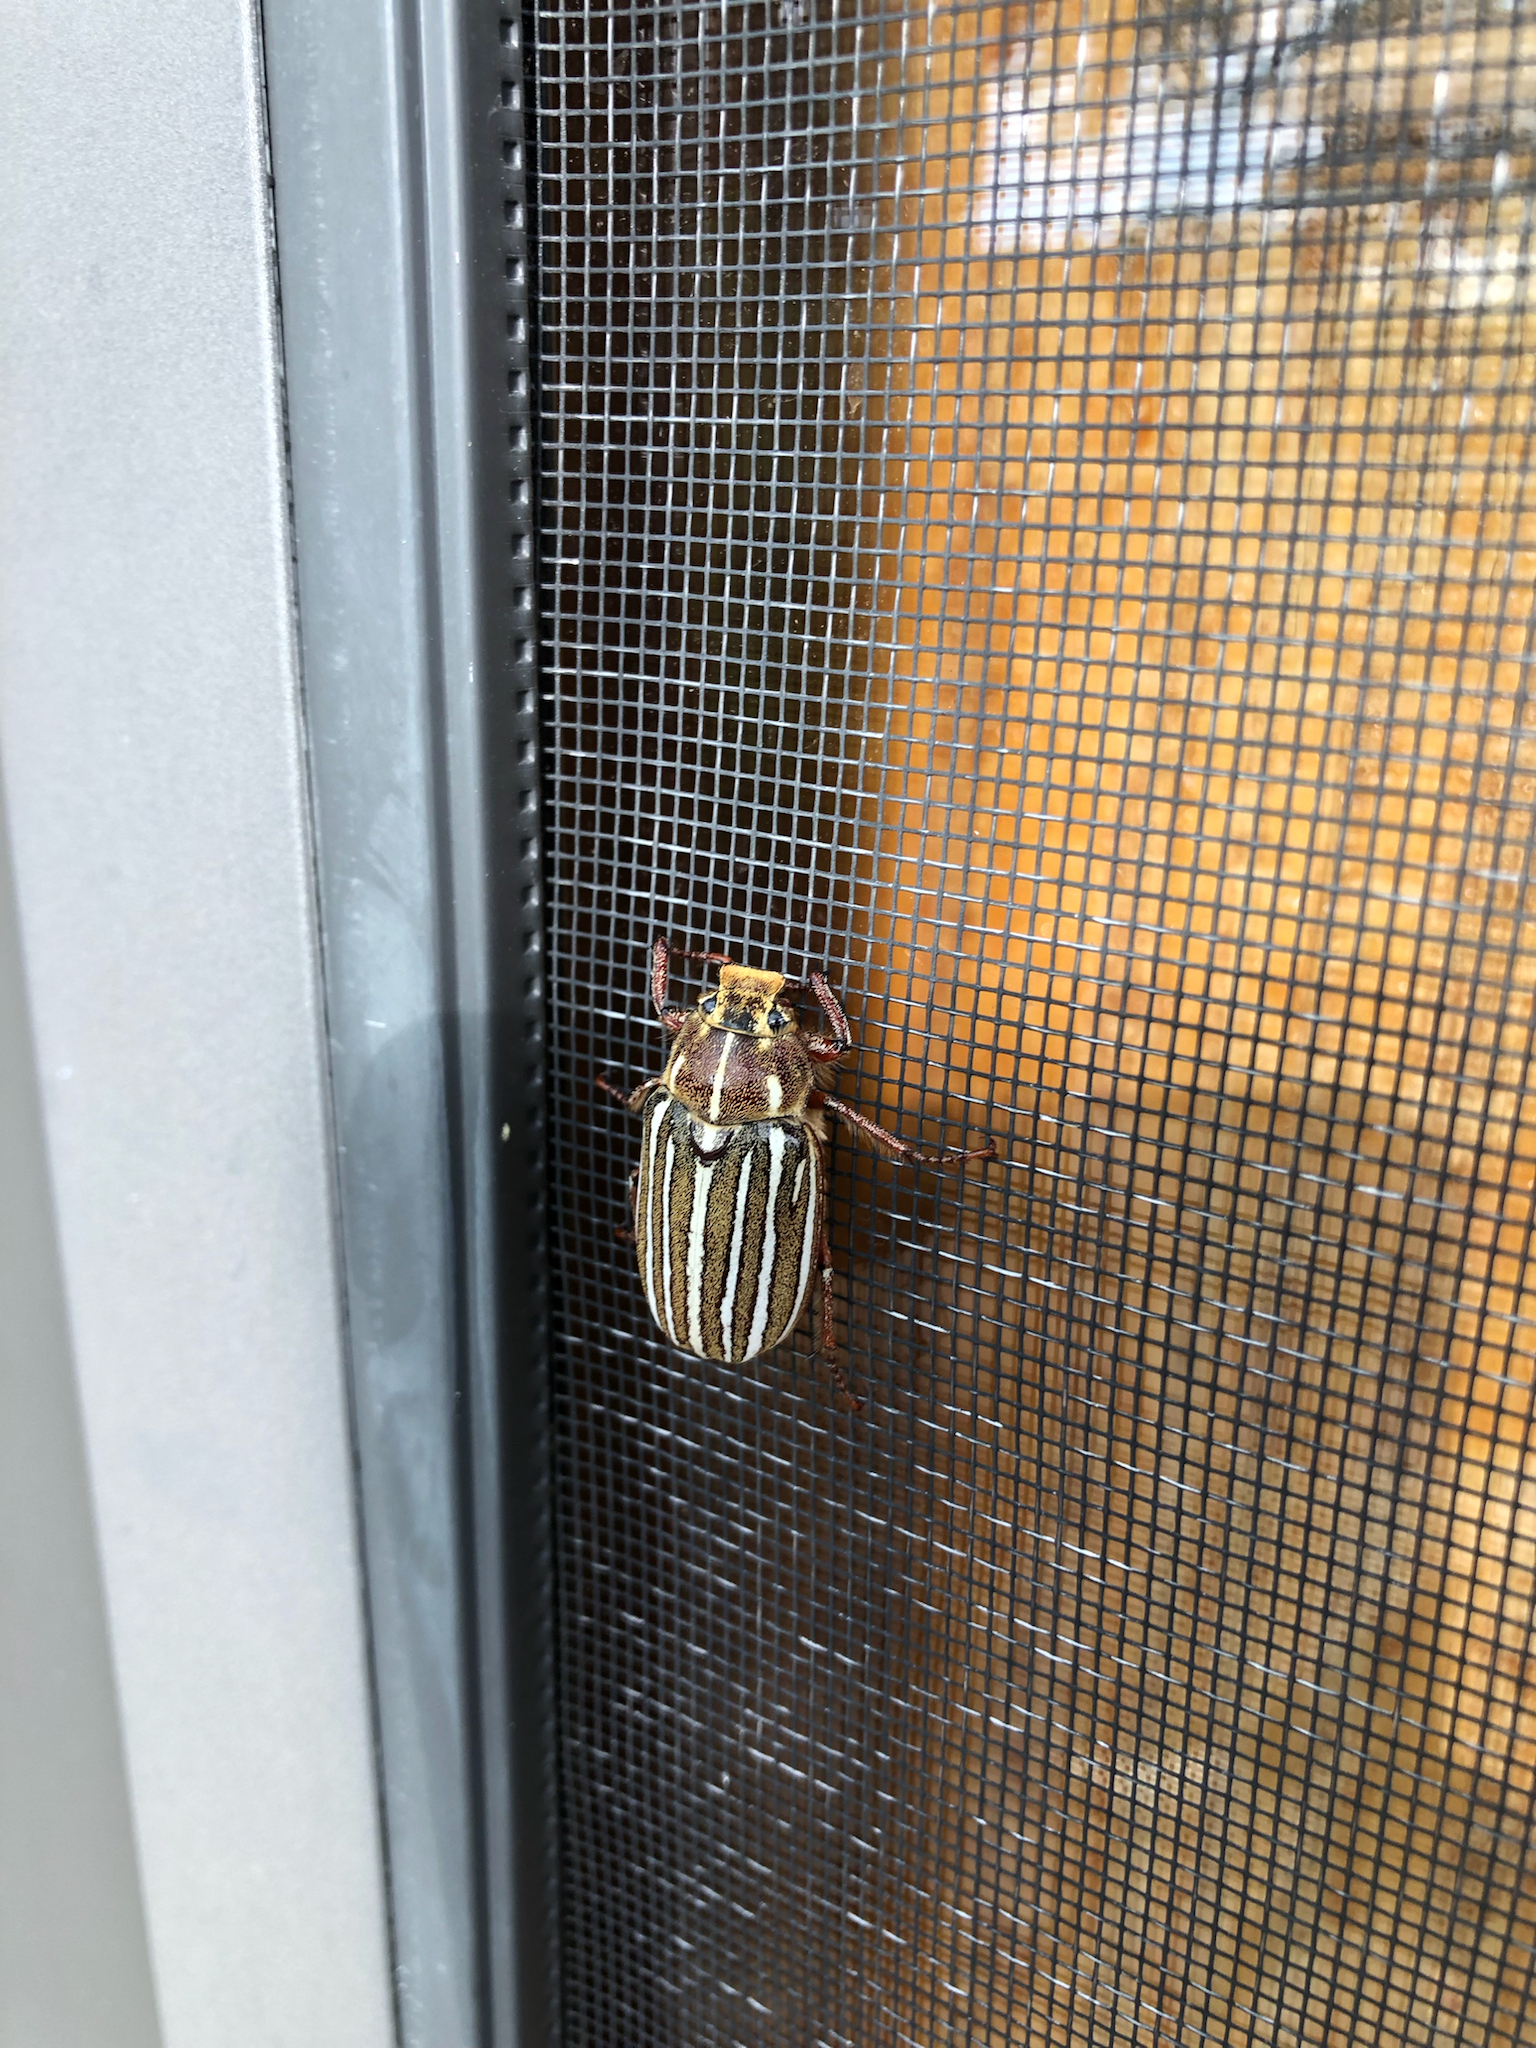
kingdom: Animalia
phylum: Arthropoda
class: Insecta
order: Coleoptera
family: Scarabaeidae
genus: Polyphylla
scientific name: Polyphylla decemlineata
